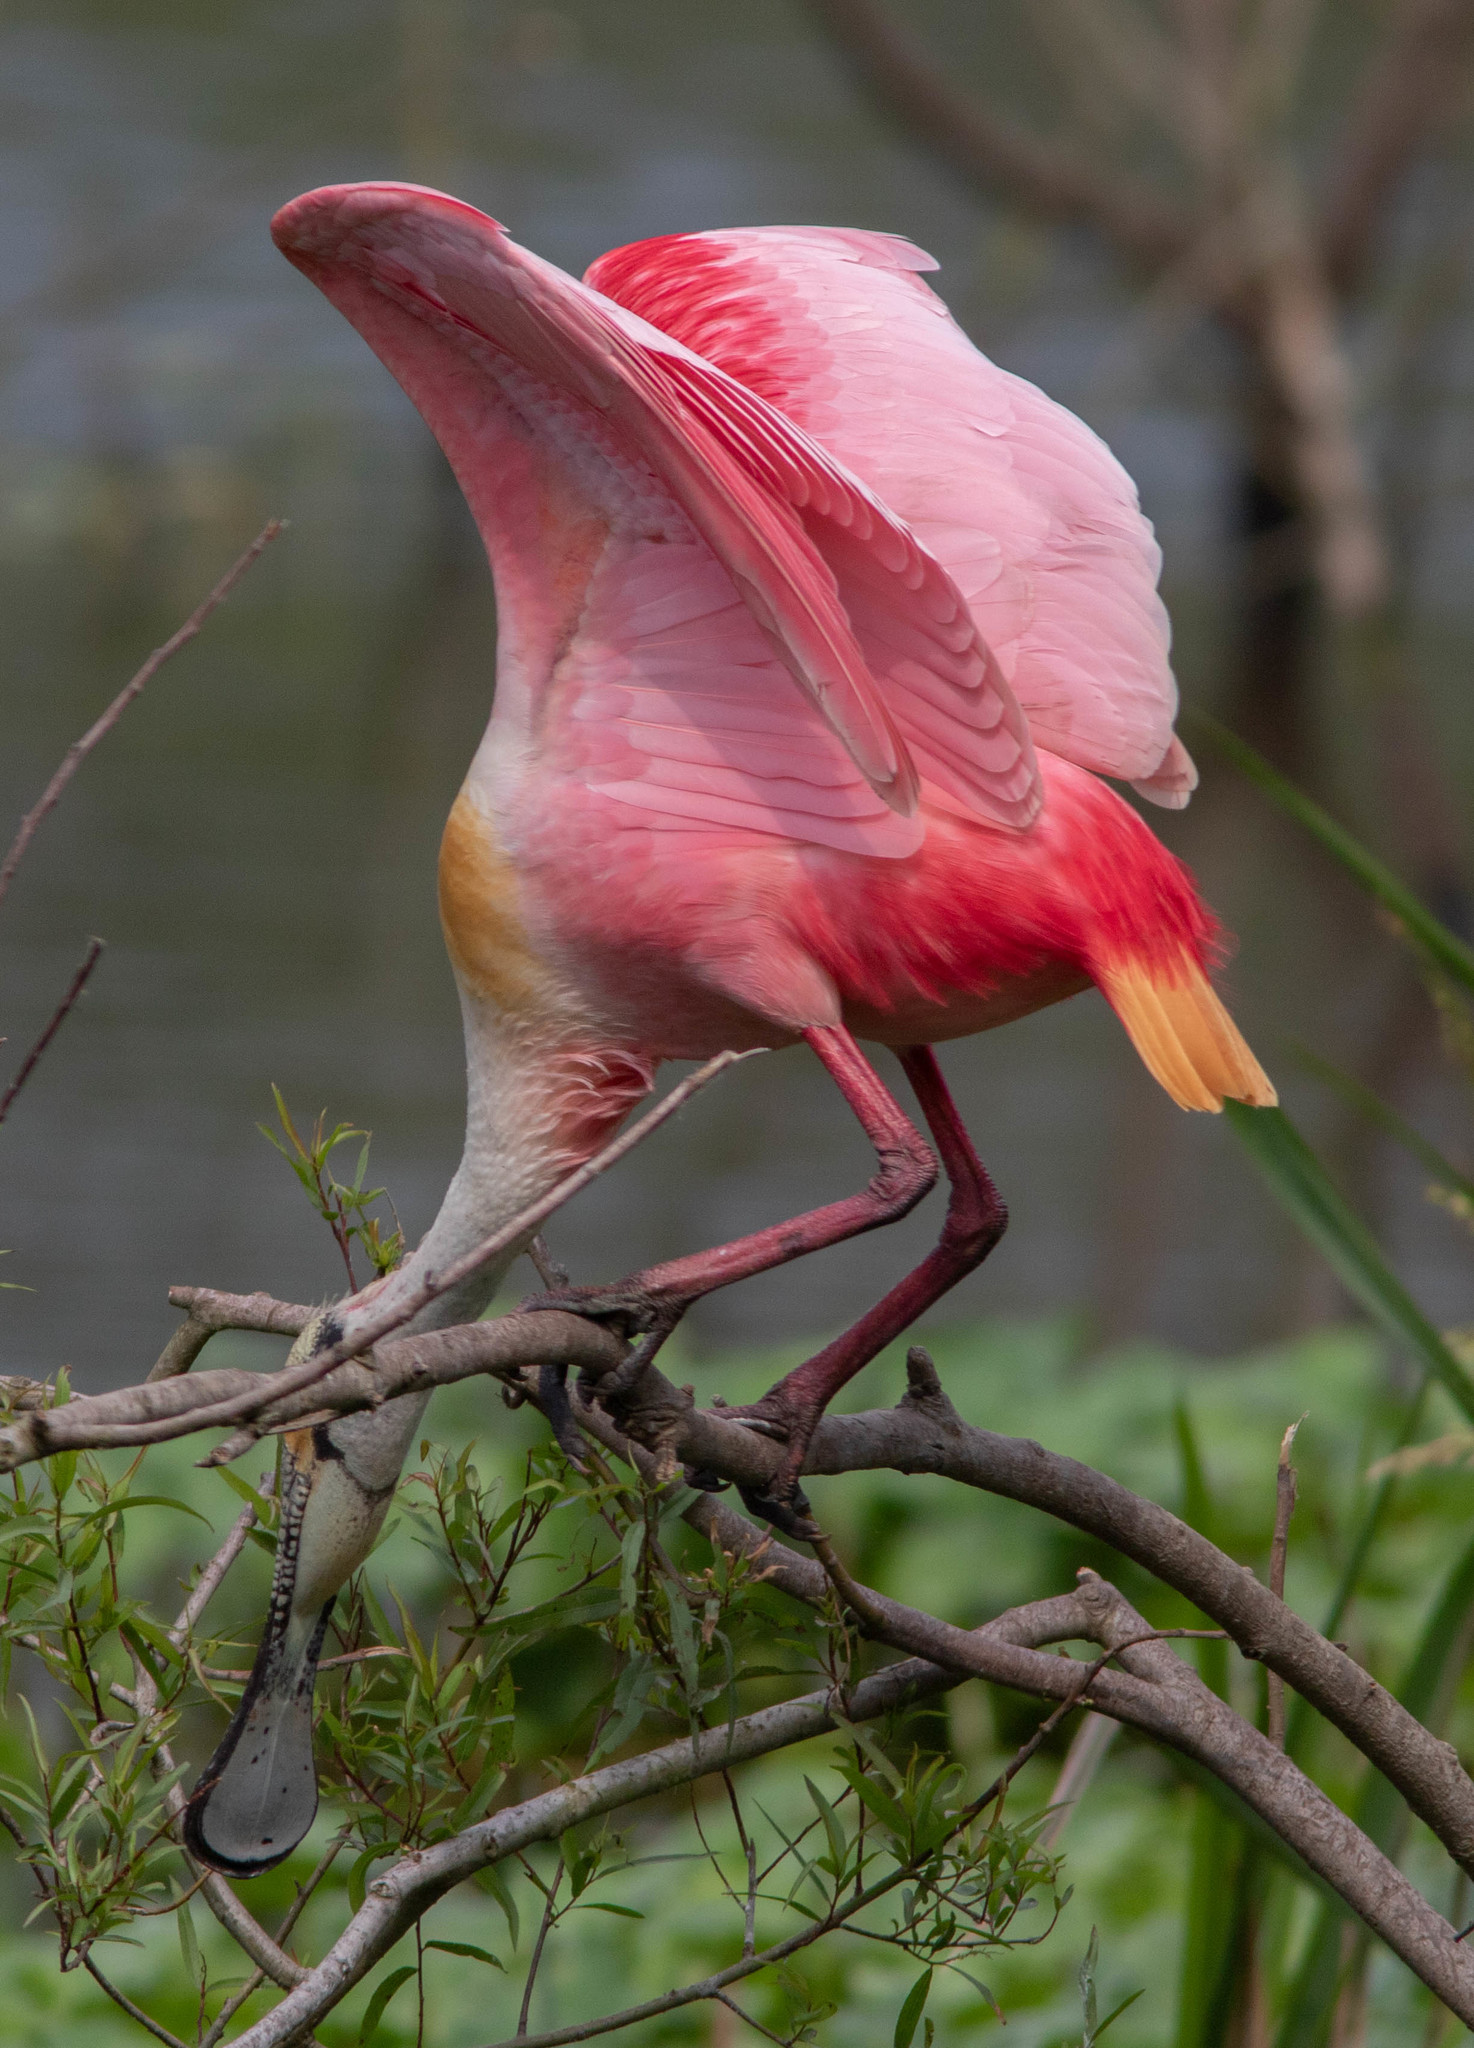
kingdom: Animalia
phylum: Chordata
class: Aves
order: Pelecaniformes
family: Threskiornithidae
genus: Platalea
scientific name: Platalea ajaja
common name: Roseate spoonbill
